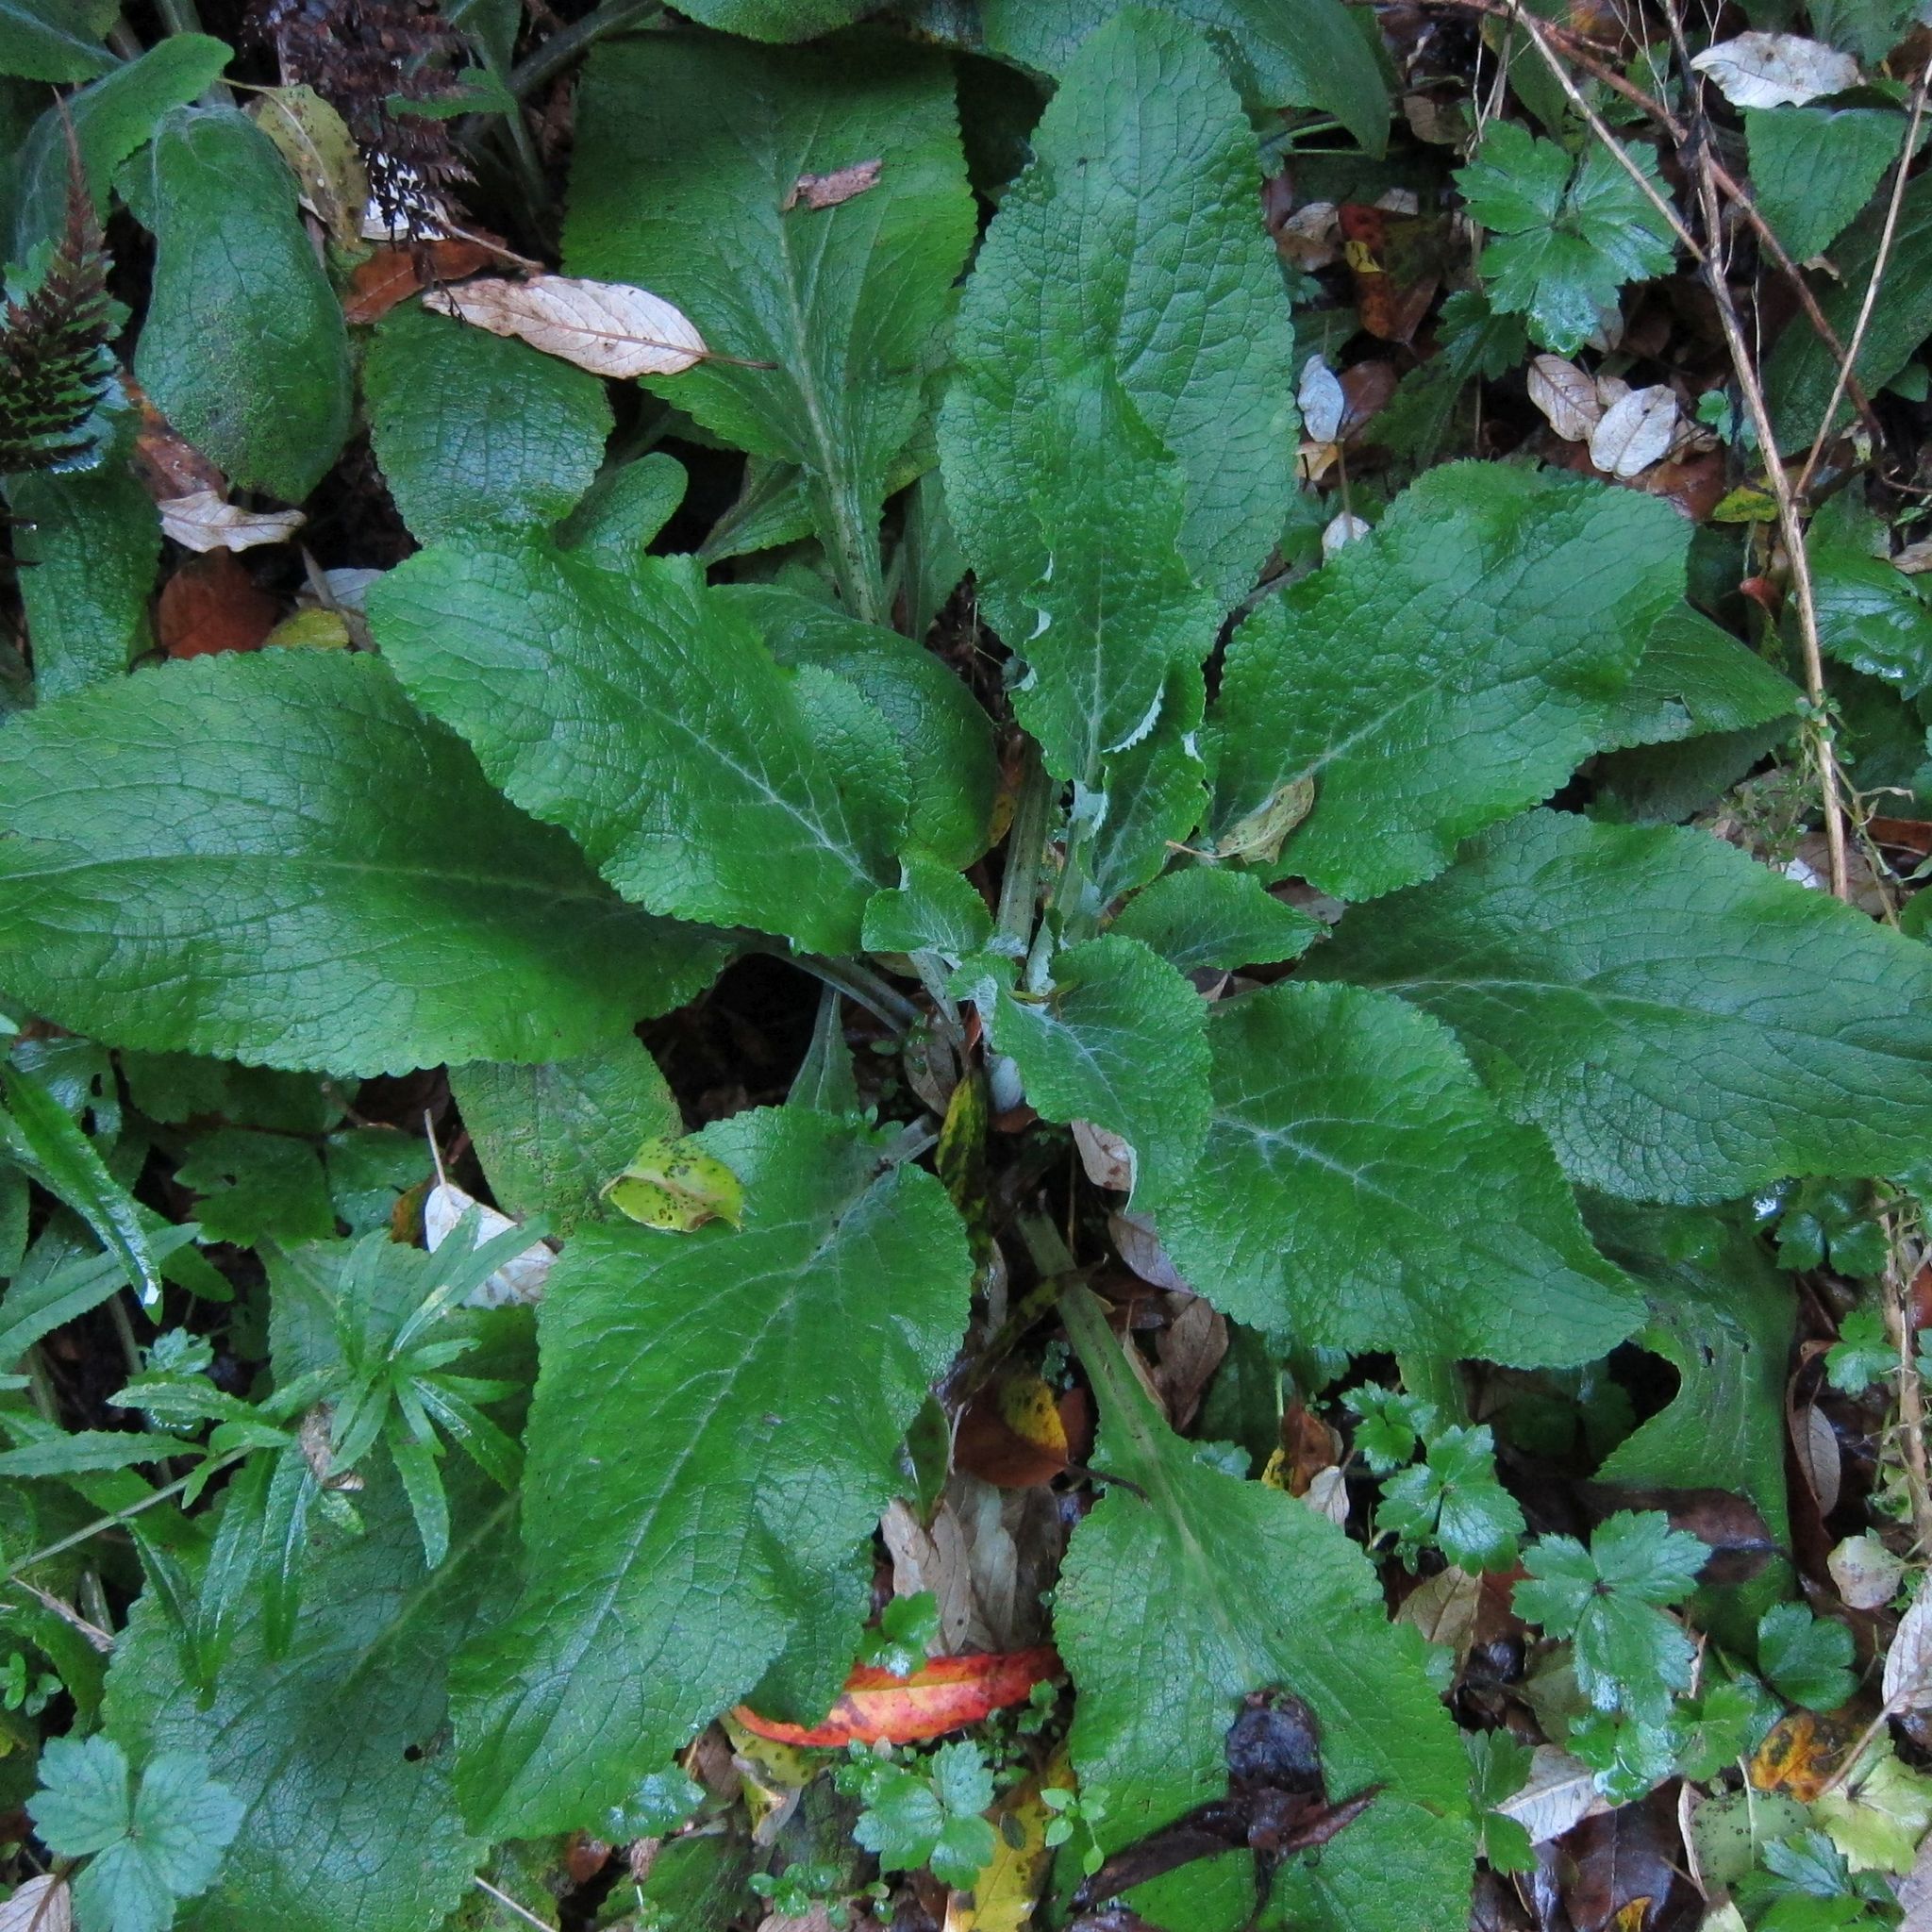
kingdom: Plantae
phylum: Tracheophyta
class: Magnoliopsida
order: Lamiales
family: Plantaginaceae
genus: Digitalis
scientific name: Digitalis purpurea
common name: Foxglove
